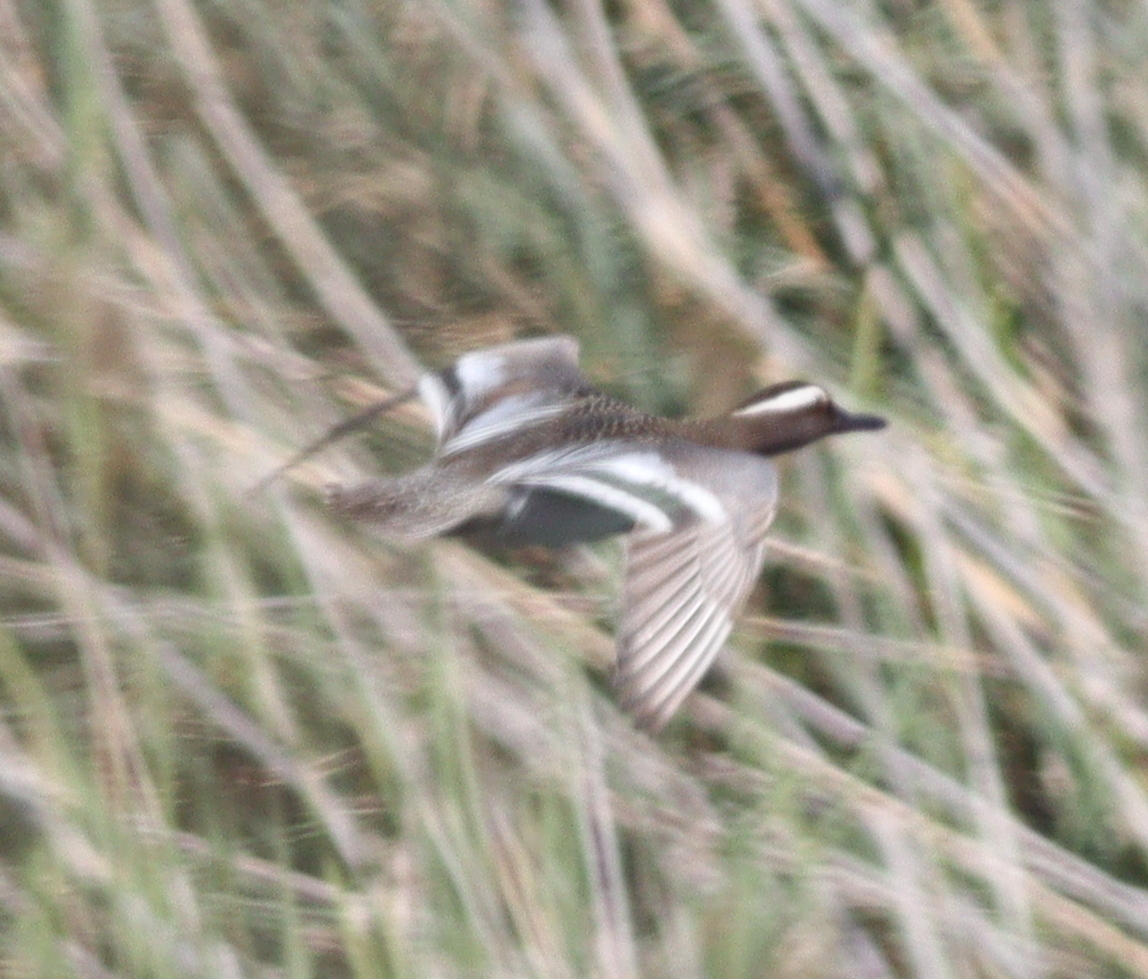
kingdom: Animalia
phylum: Chordata
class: Aves
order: Anseriformes
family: Anatidae
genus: Spatula
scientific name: Spatula querquedula
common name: Garganey
